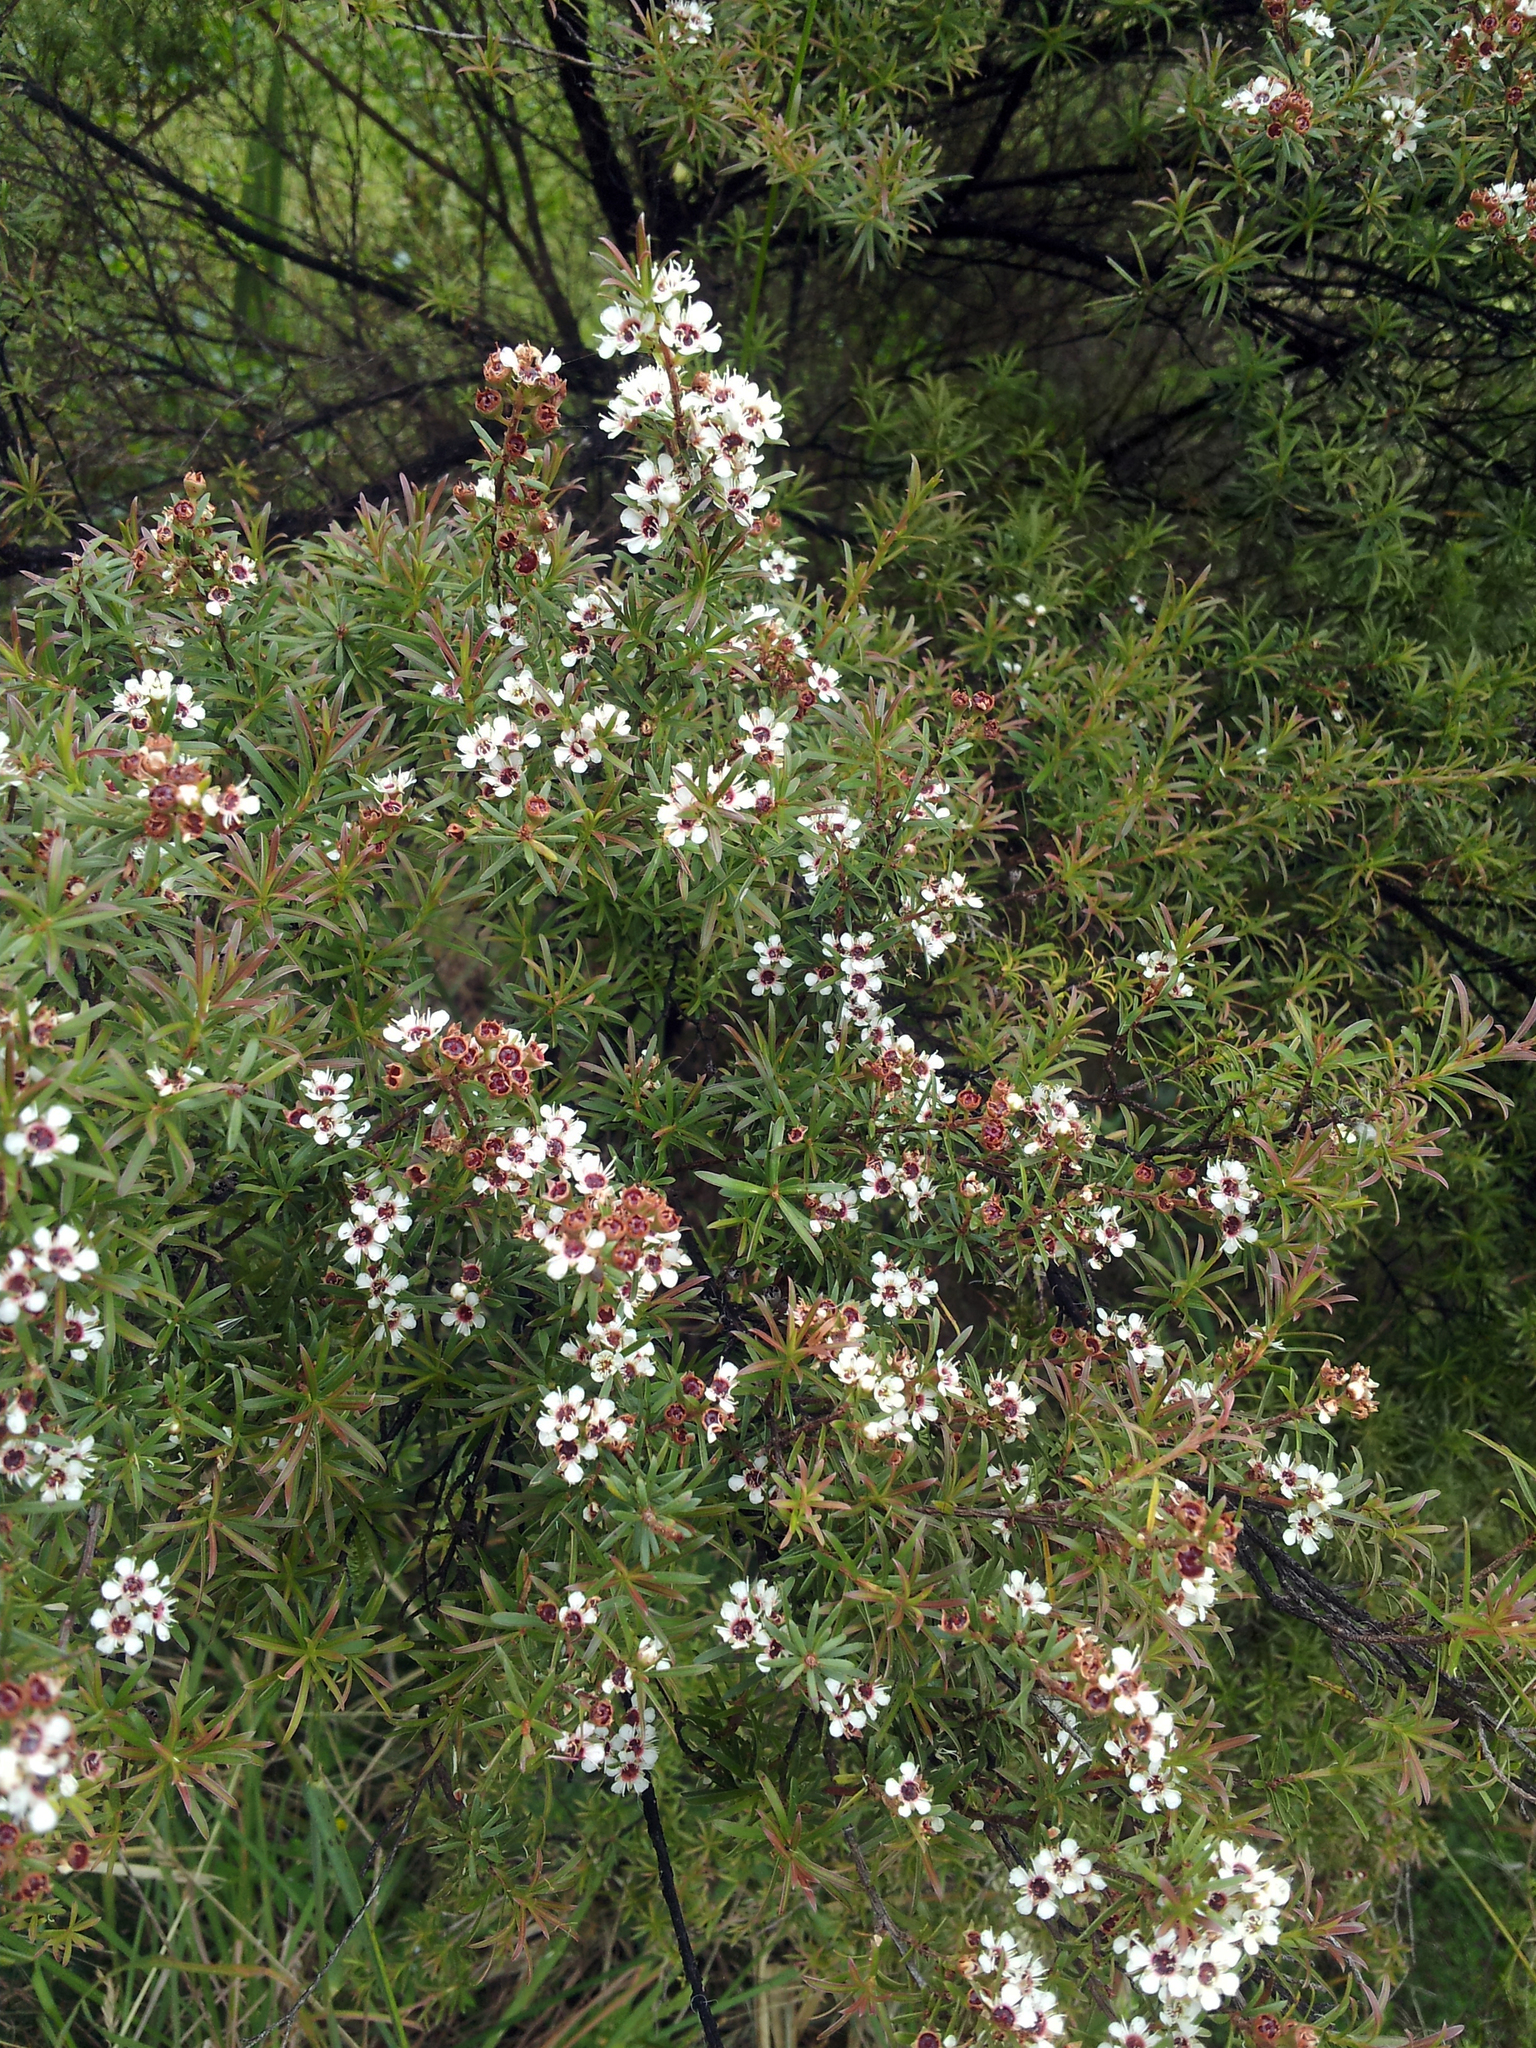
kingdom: Plantae
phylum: Tracheophyta
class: Magnoliopsida
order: Myrtales
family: Myrtaceae
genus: Kunzea
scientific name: Kunzea robusta
